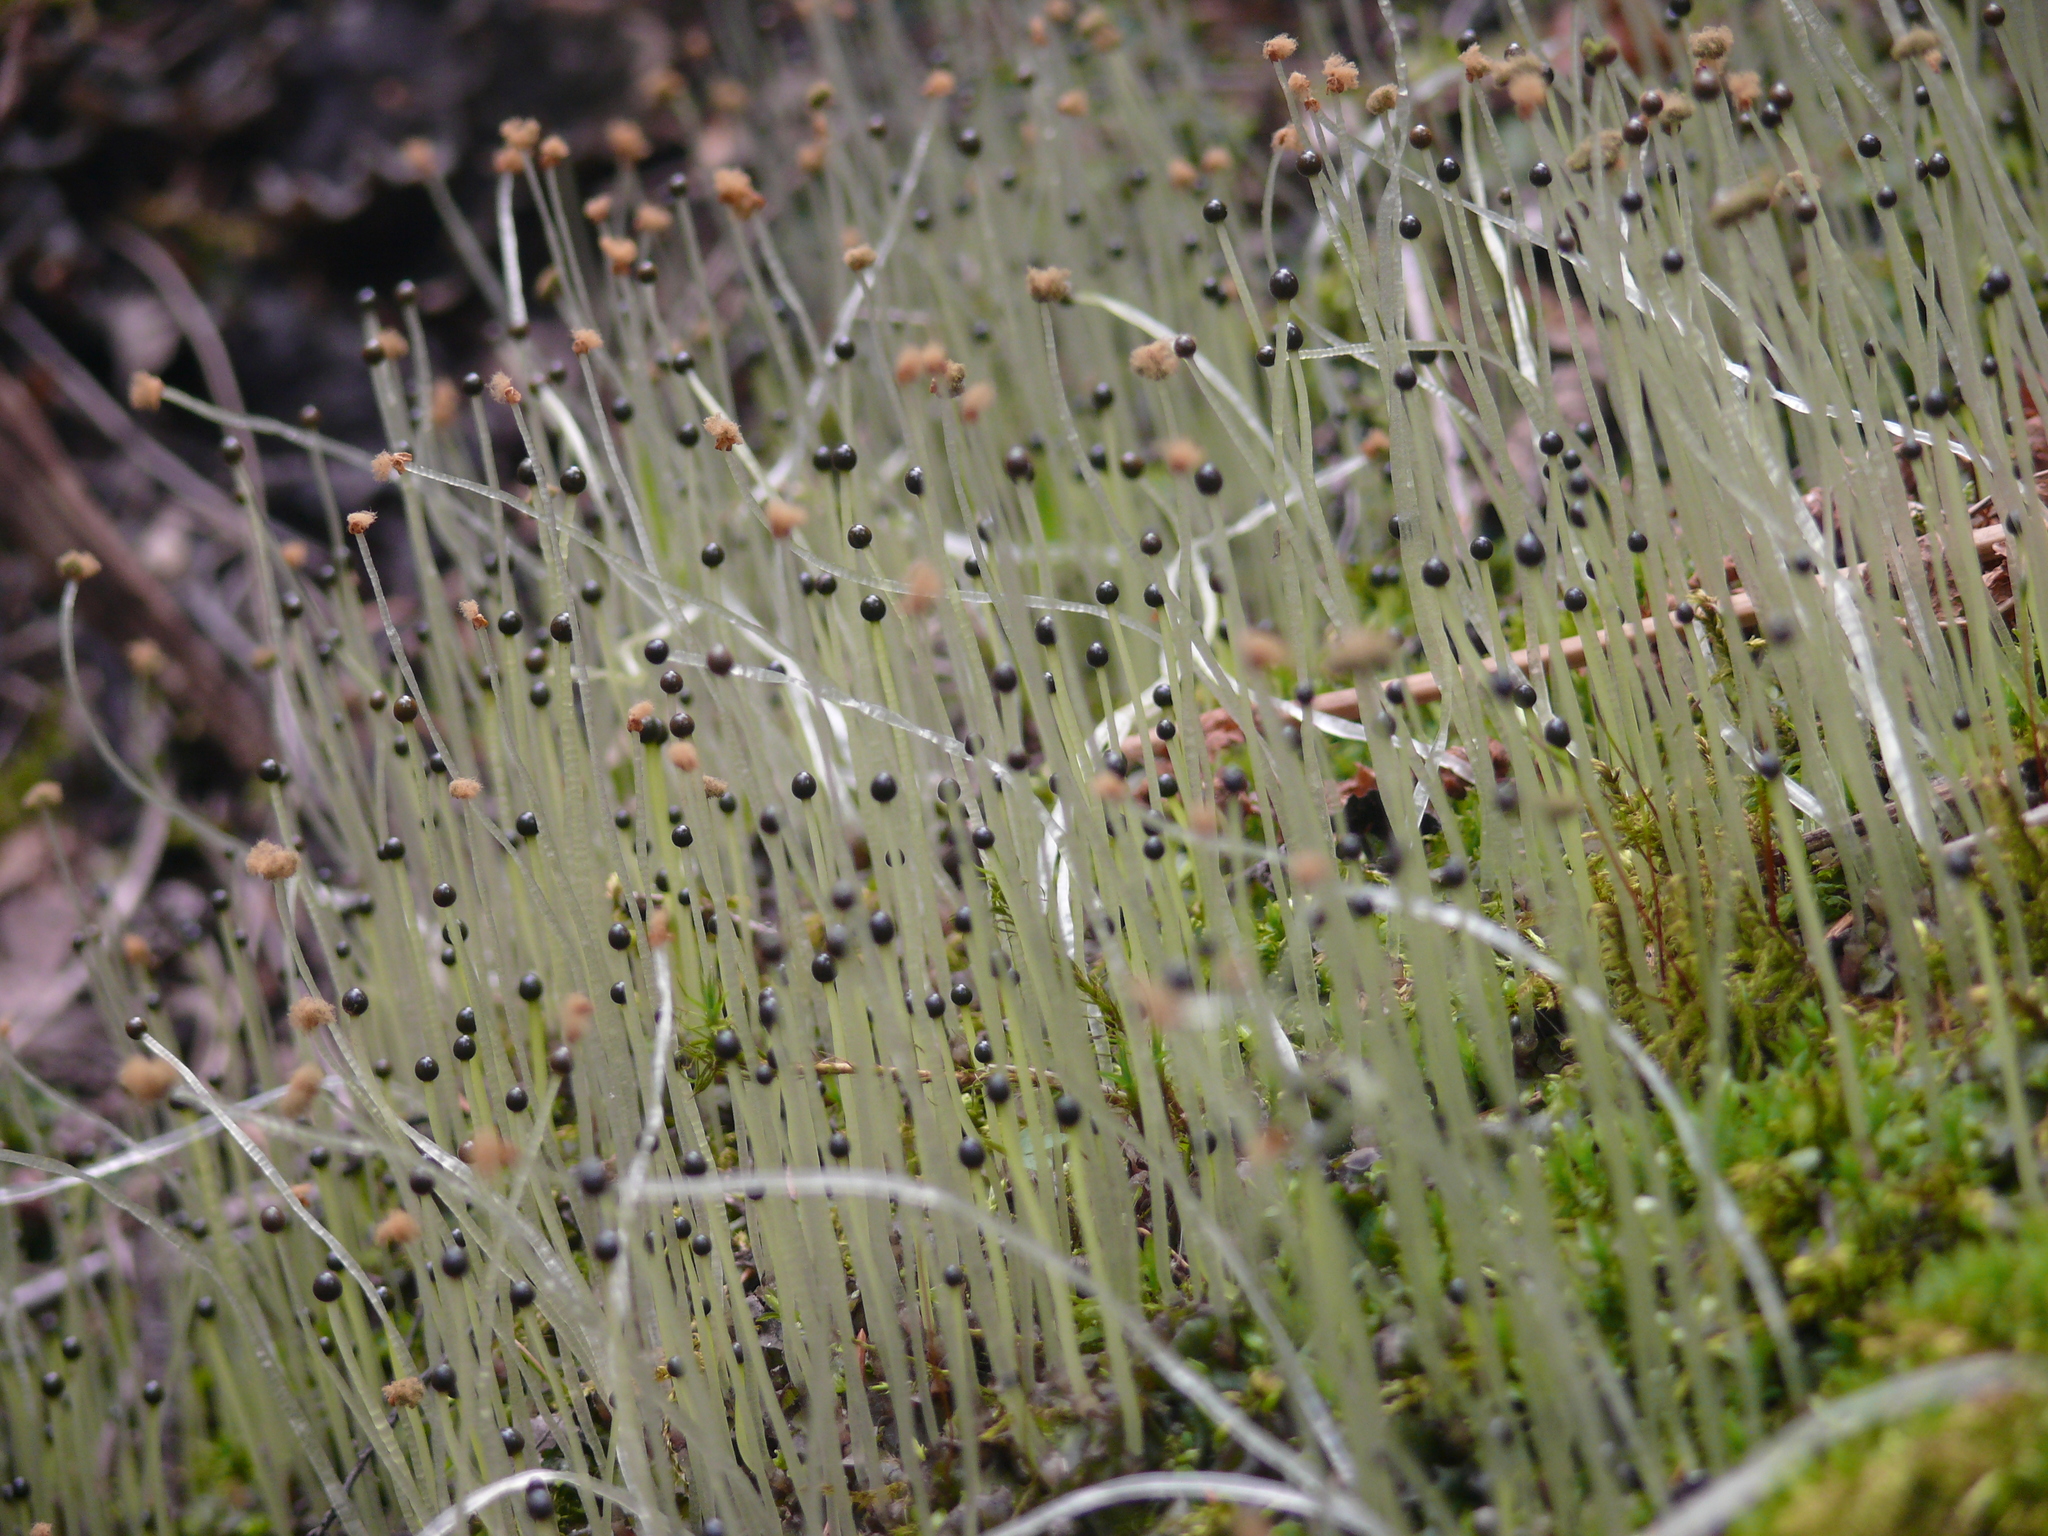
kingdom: Plantae
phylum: Marchantiophyta
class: Jungermanniopsida
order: Pelliales
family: Pelliaceae
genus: Pellia
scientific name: Pellia epiphylla
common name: Common pellia
